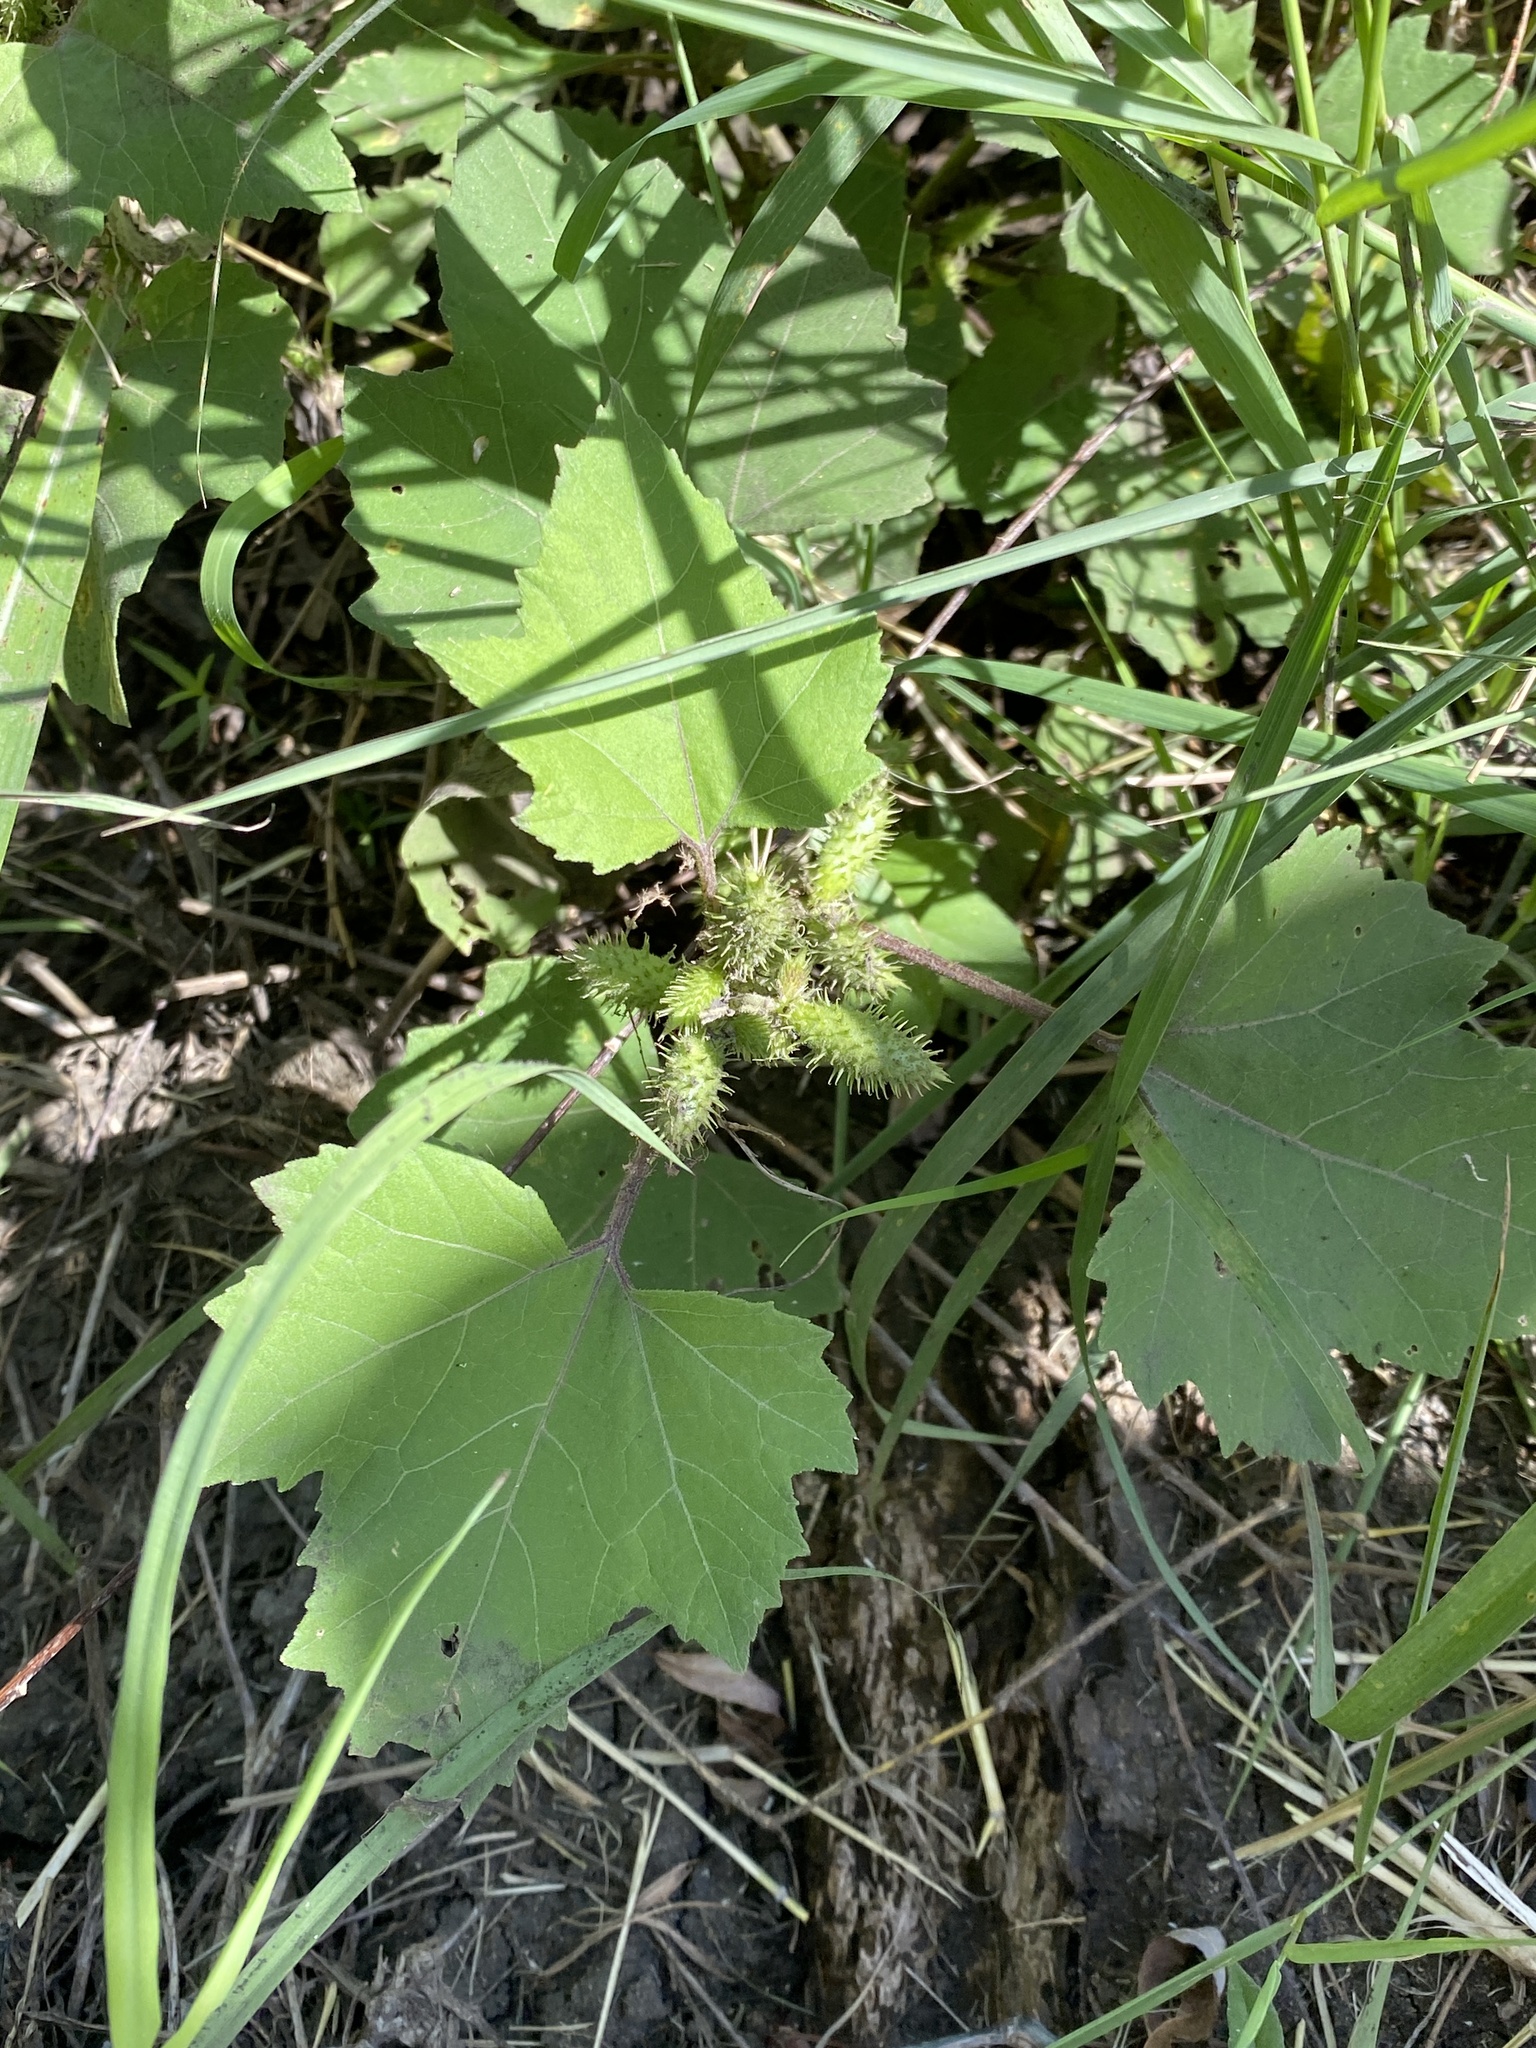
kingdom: Plantae
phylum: Tracheophyta
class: Magnoliopsida
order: Asterales
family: Asteraceae
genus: Xanthium
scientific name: Xanthium strumarium
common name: Rough cocklebur
